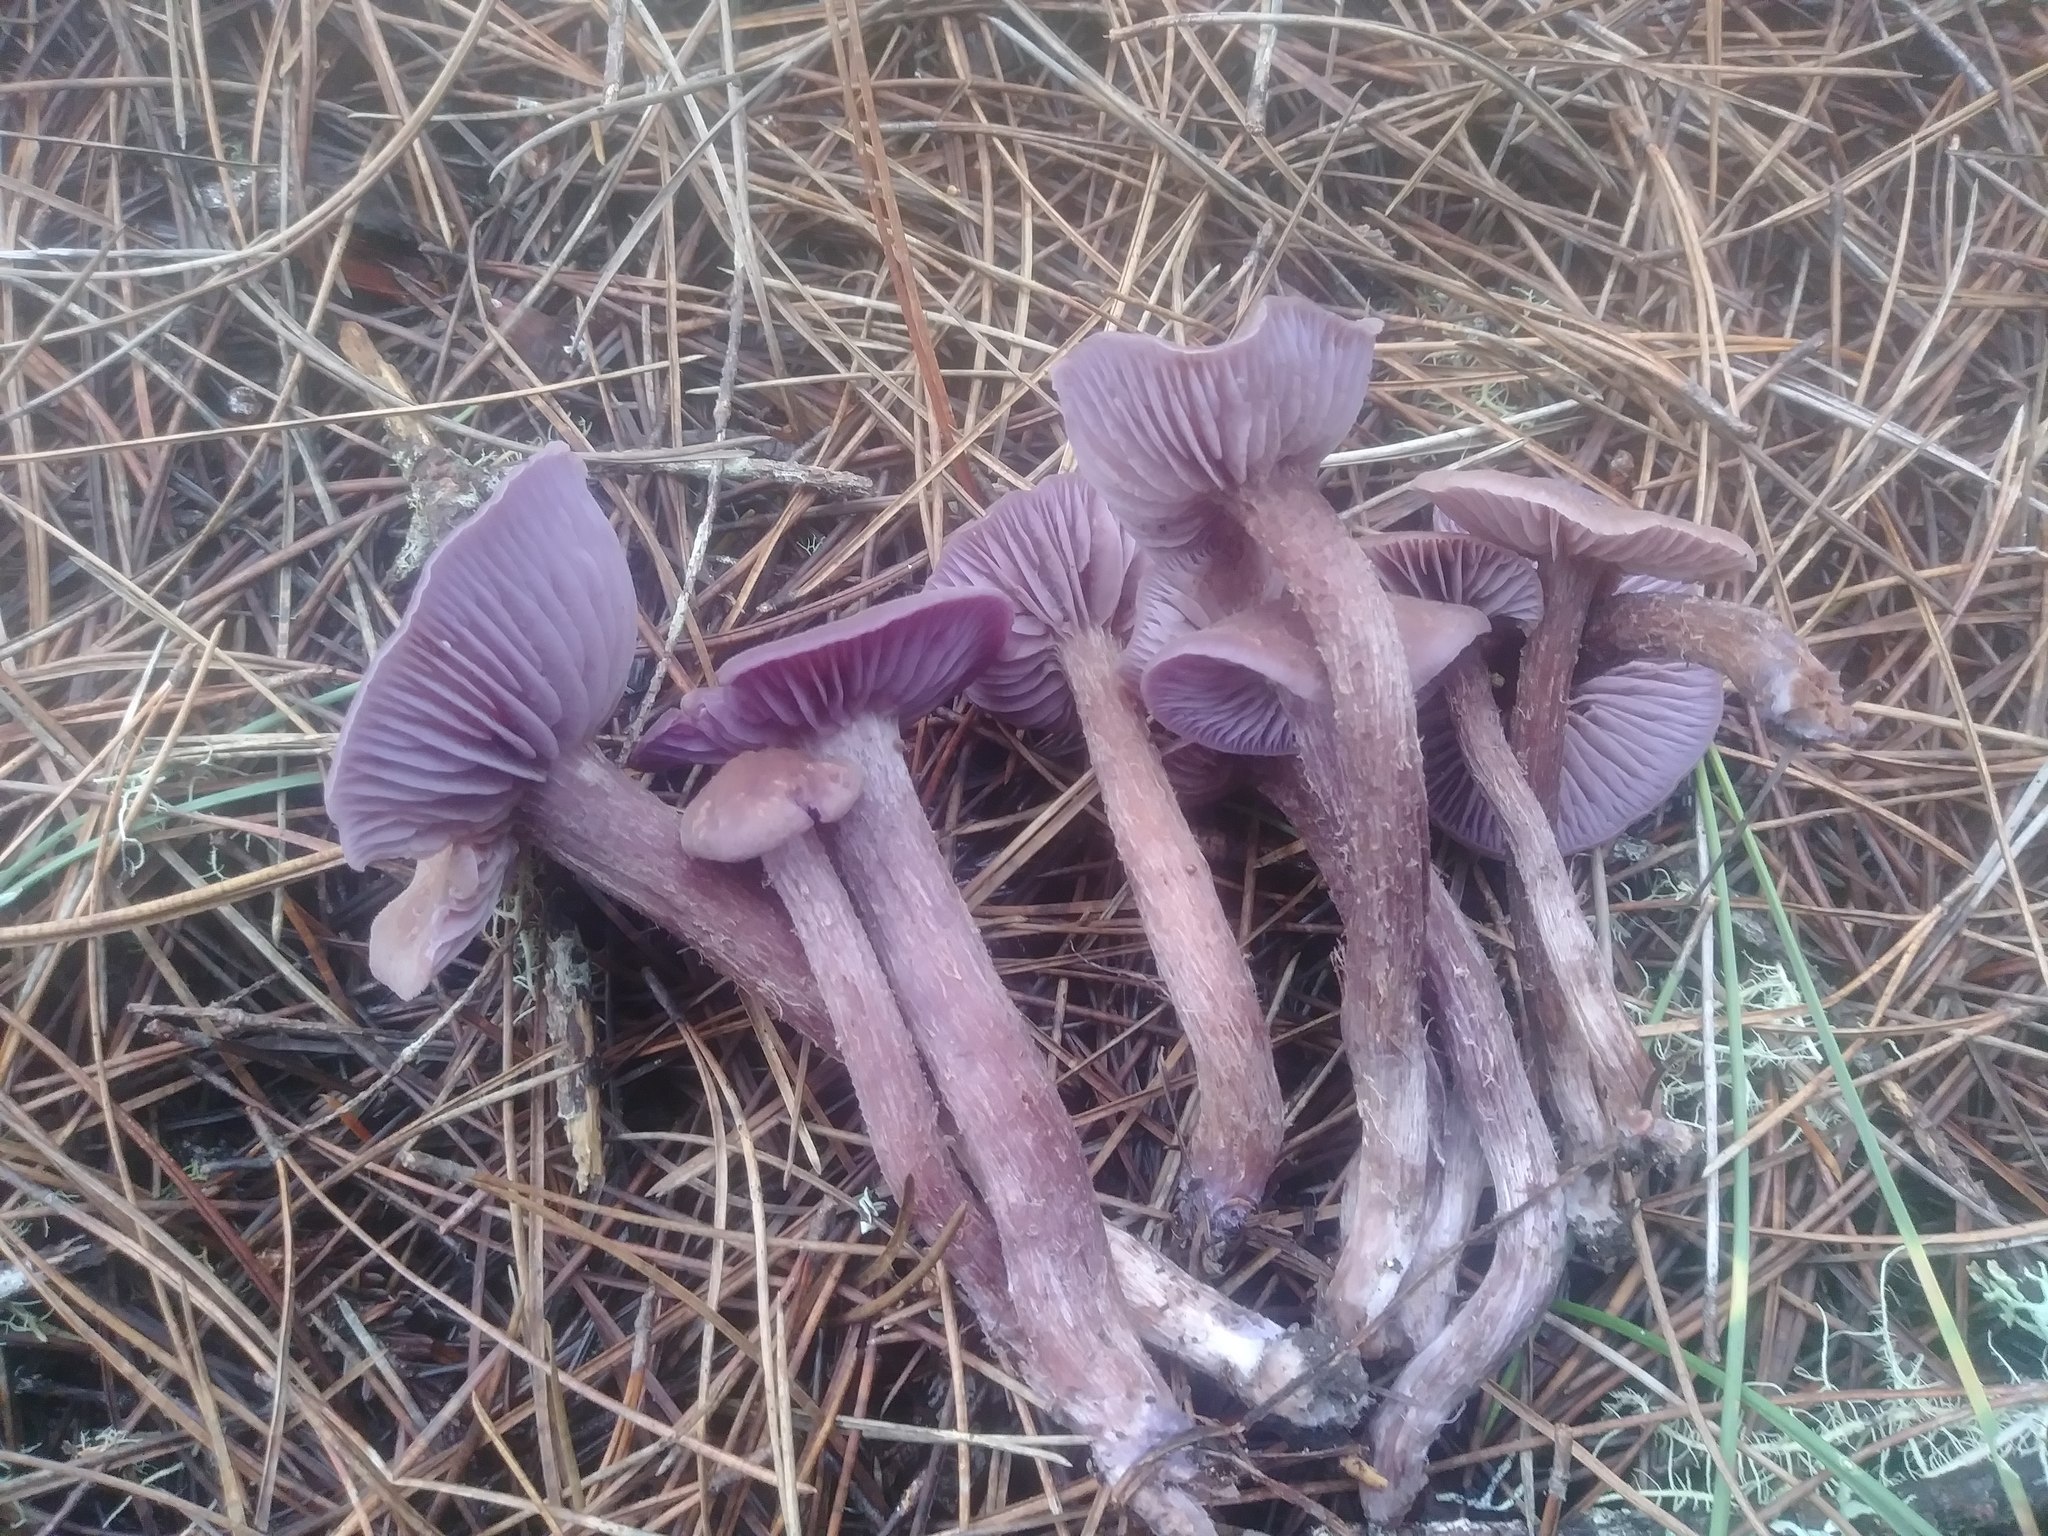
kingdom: Fungi
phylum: Basidiomycota
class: Agaricomycetes
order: Agaricales
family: Hydnangiaceae
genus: Laccaria
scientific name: Laccaria amethysteo-occidentalis
